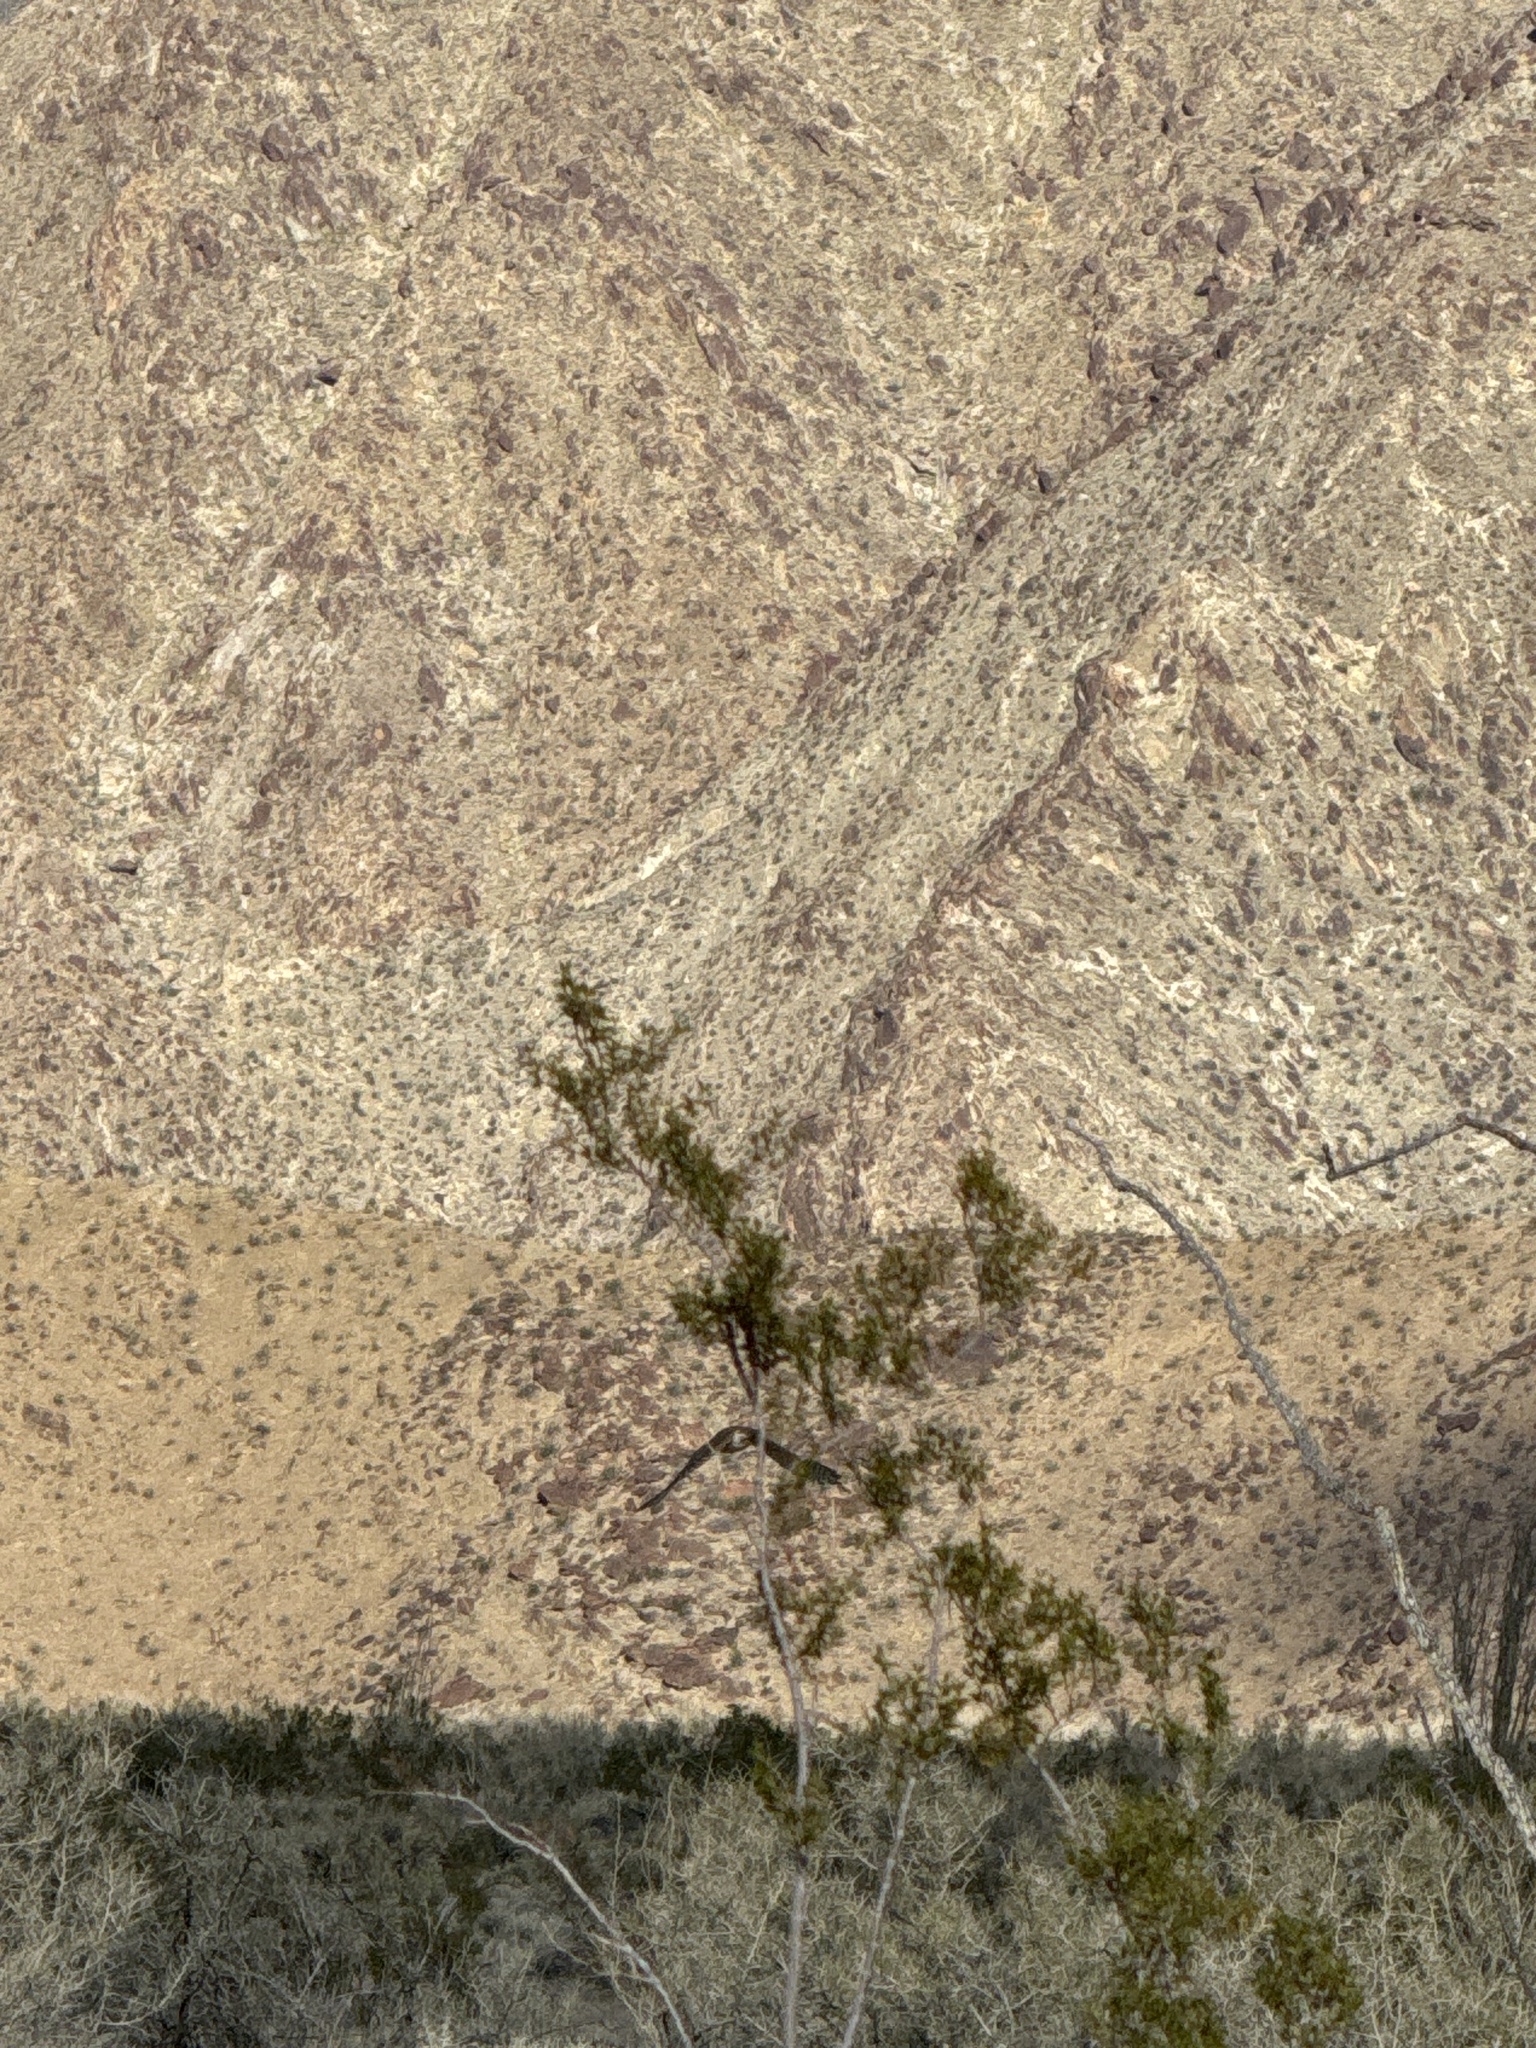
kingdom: Plantae
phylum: Tracheophyta
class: Magnoliopsida
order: Zygophyllales
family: Zygophyllaceae
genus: Larrea
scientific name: Larrea tridentata
